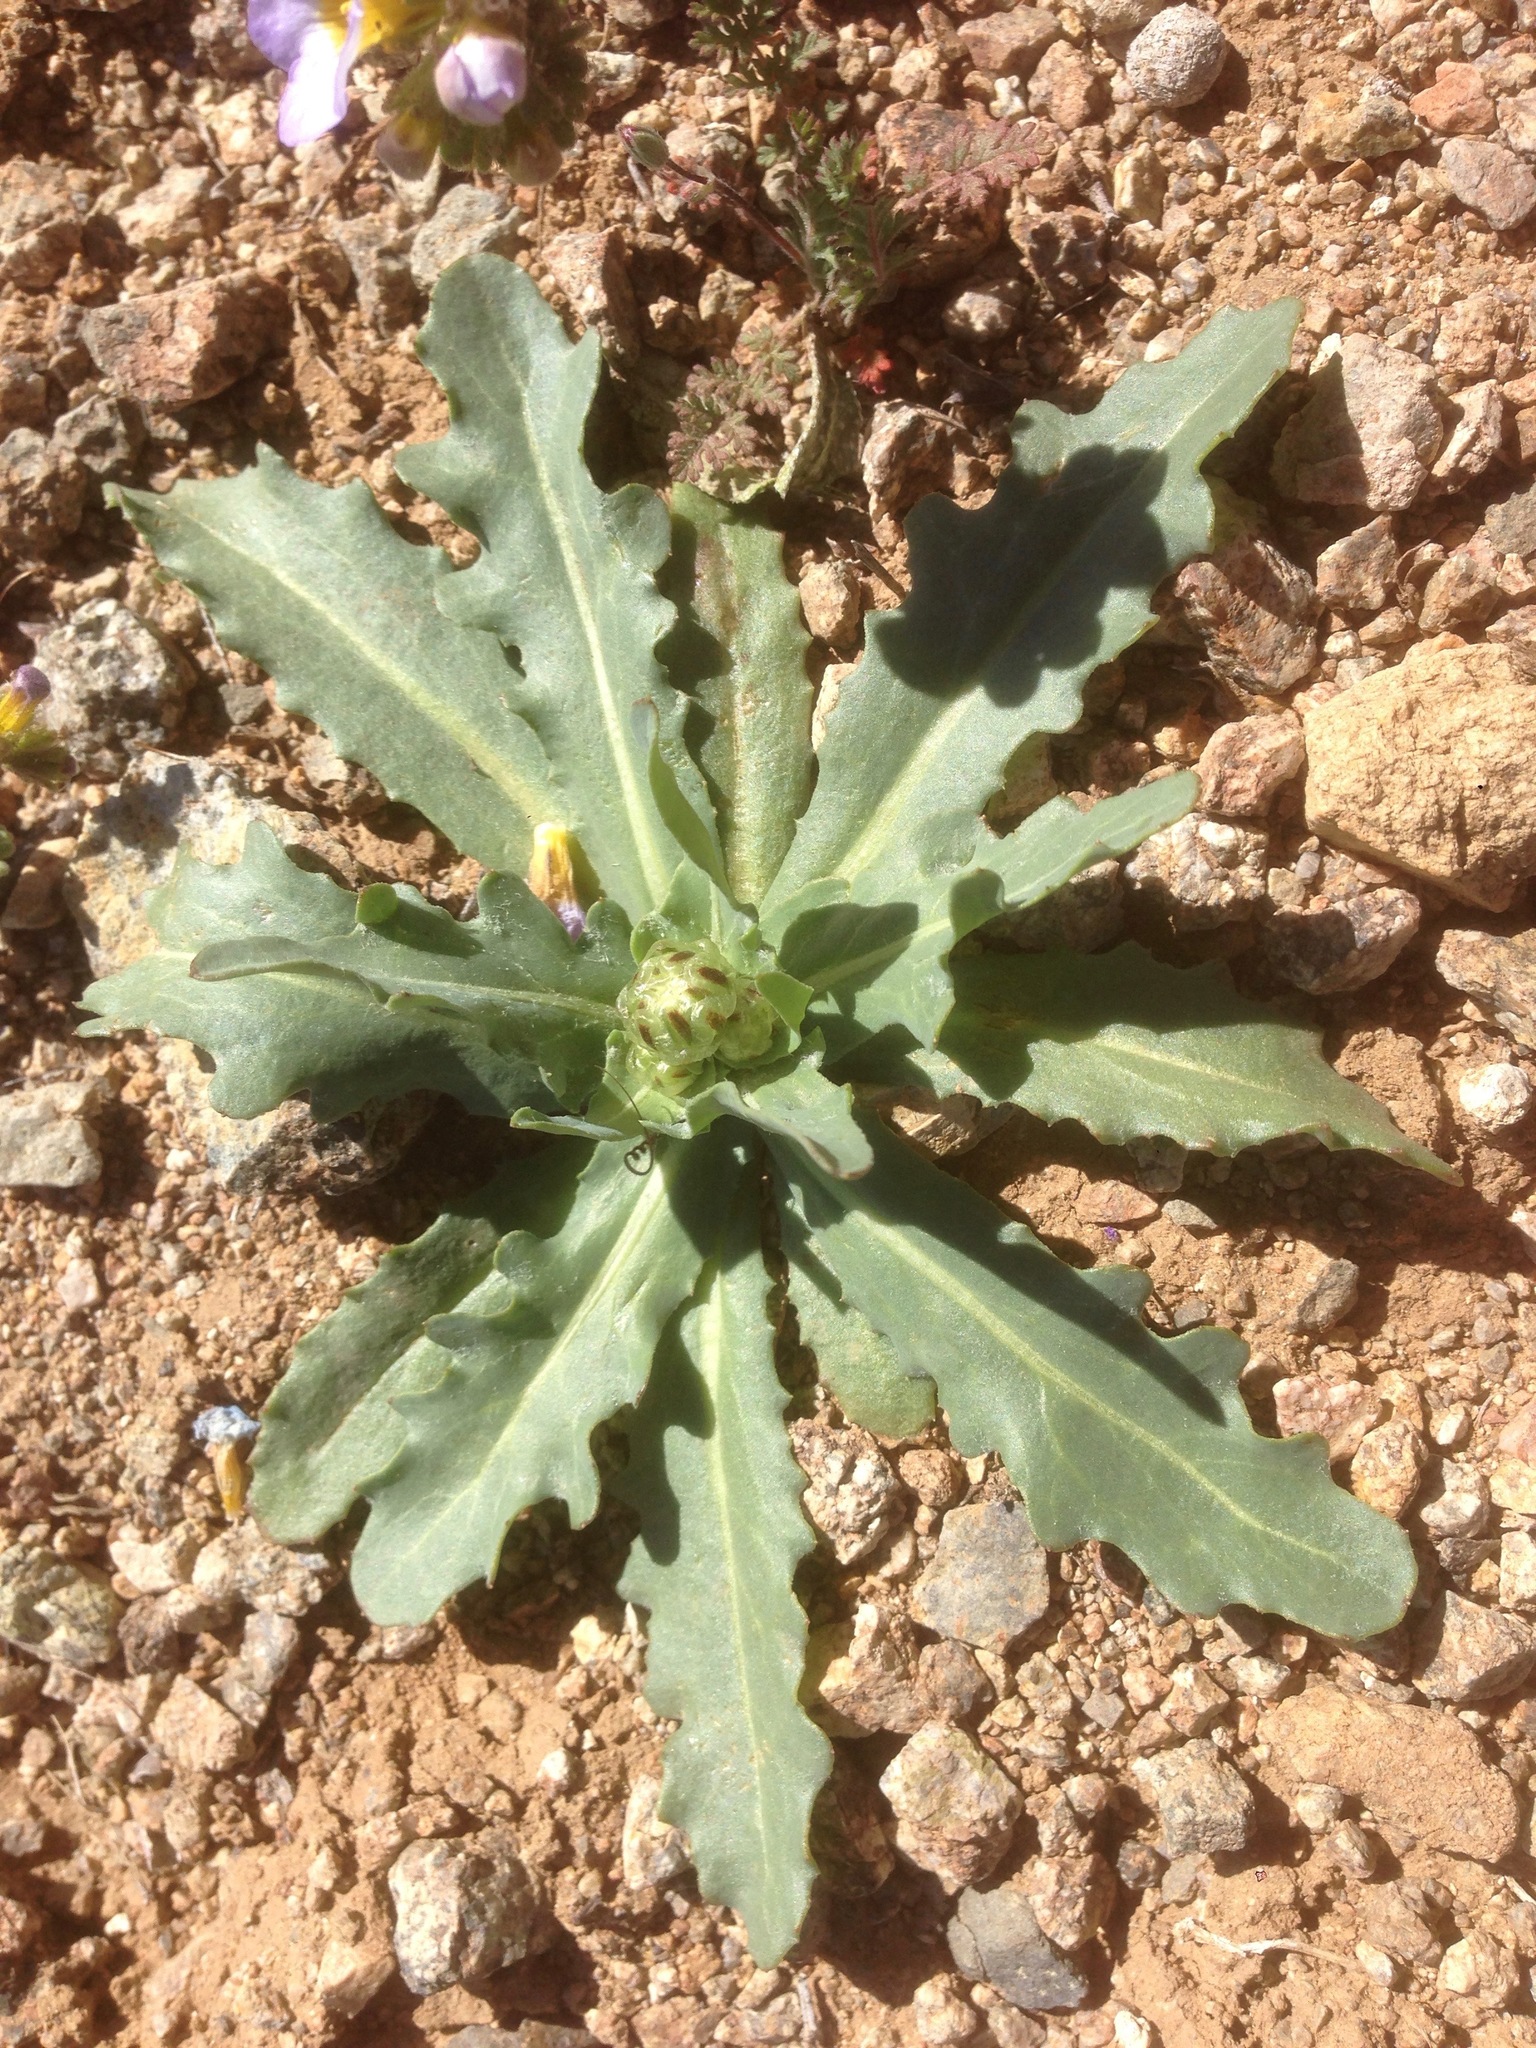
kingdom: Plantae
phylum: Tracheophyta
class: Magnoliopsida
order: Asterales
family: Asteraceae
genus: Malacothrix
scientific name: Malacothrix coulteri
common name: Snake's-head
